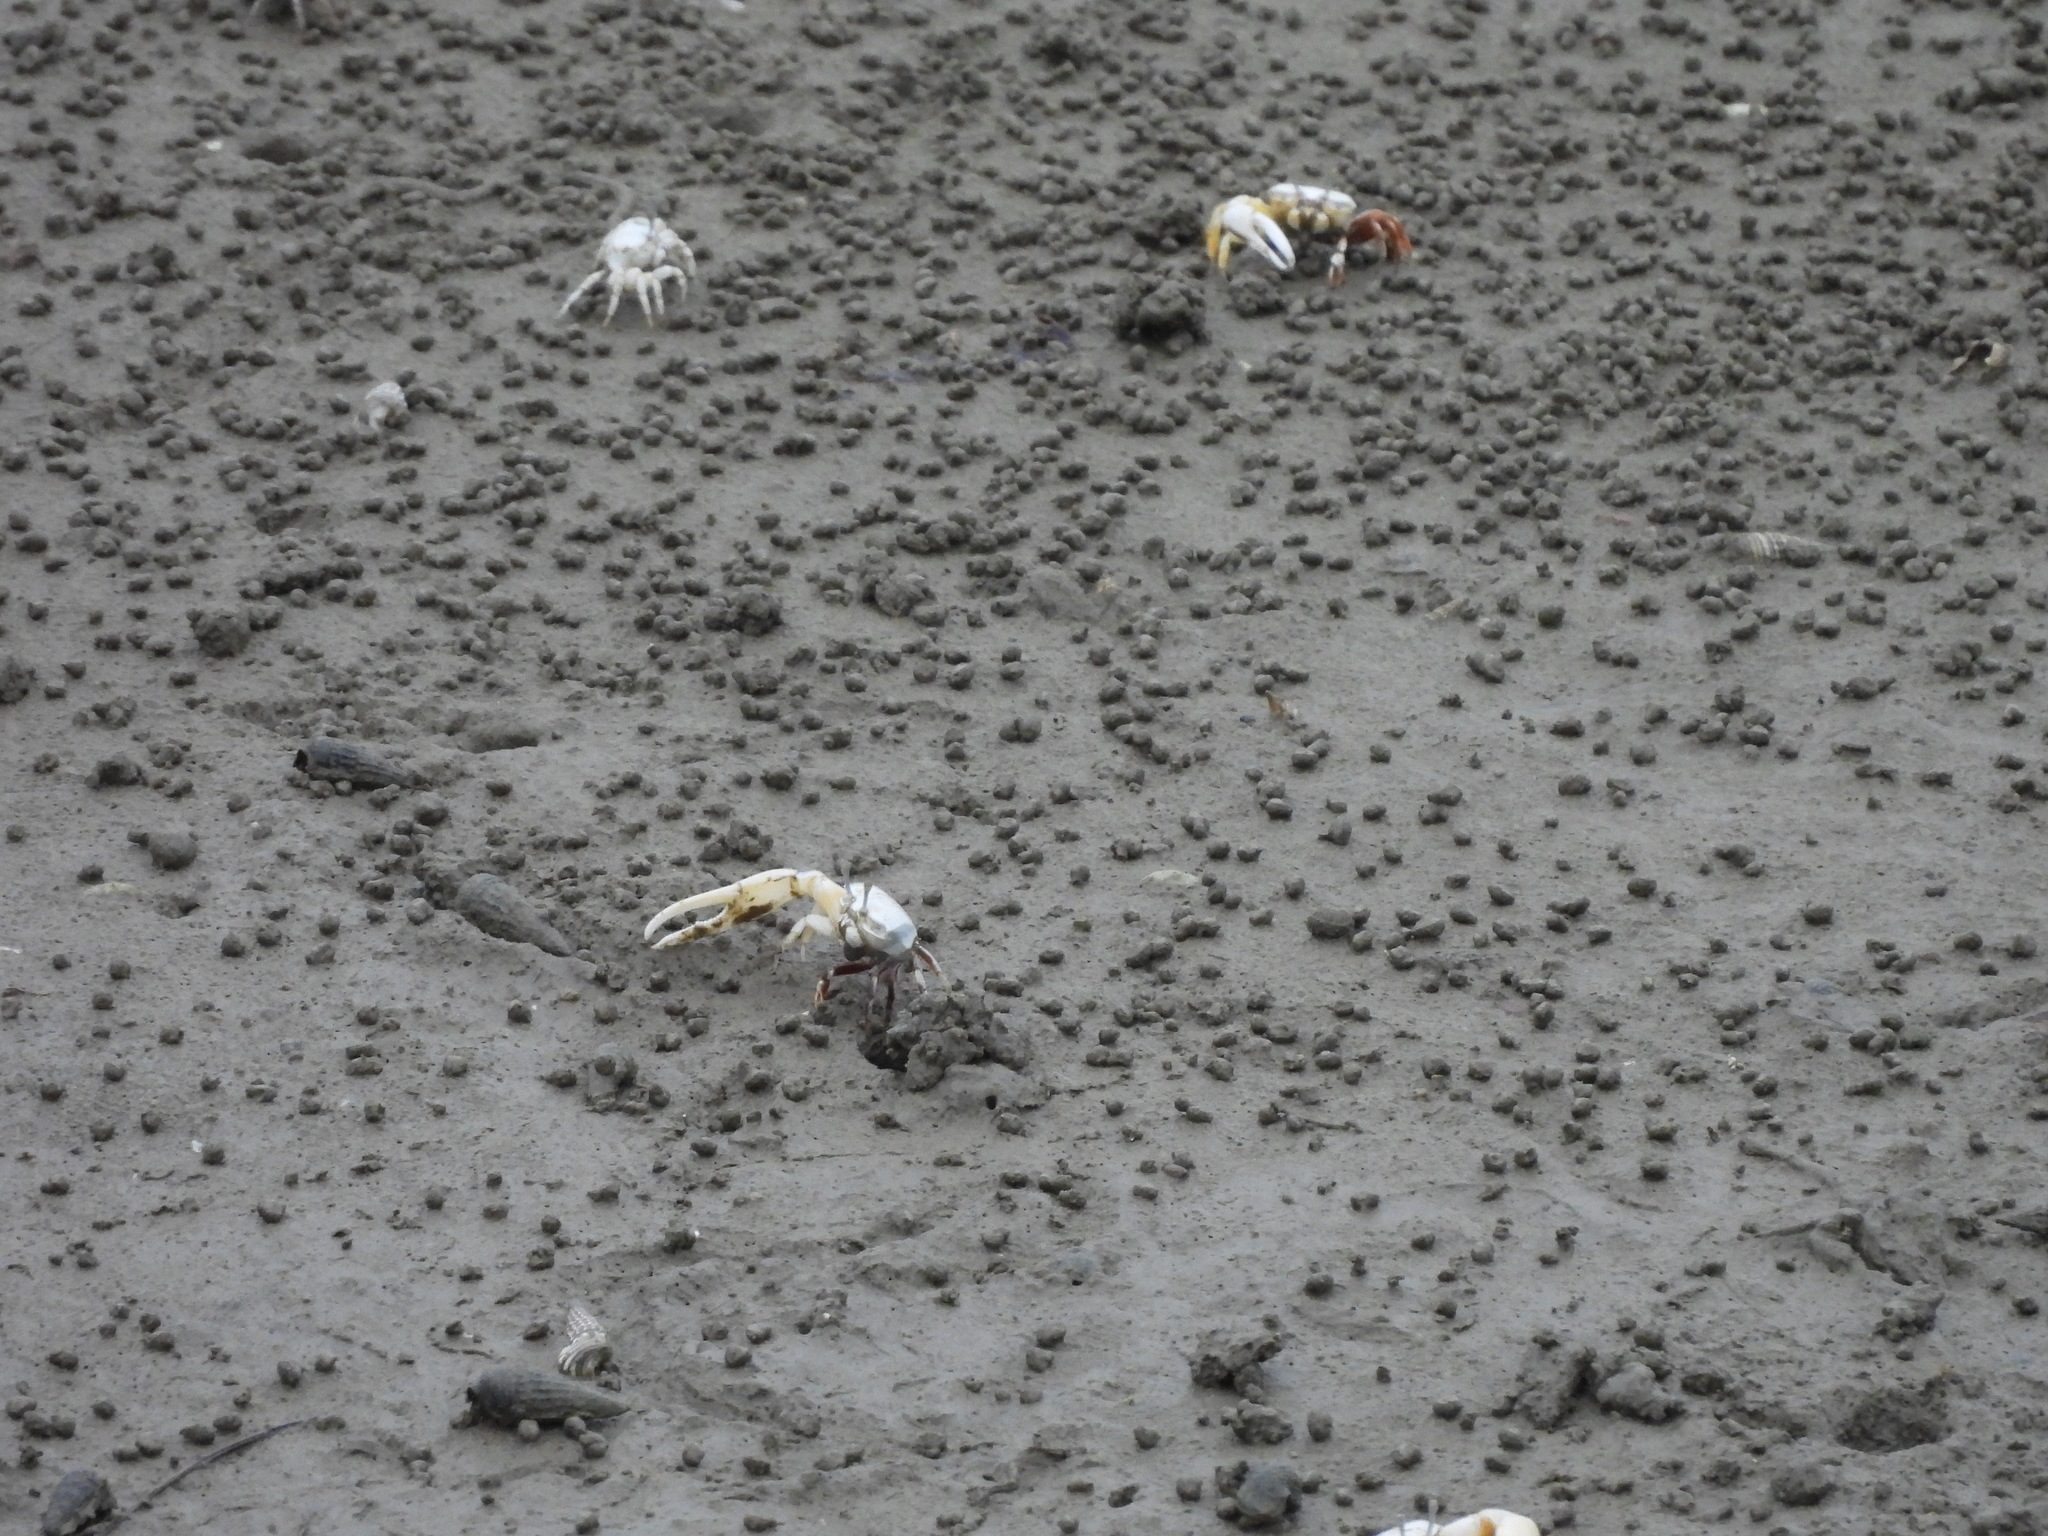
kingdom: Animalia
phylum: Arthropoda
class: Malacostraca
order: Decapoda
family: Ocypodidae
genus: Austruca
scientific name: Austruca lactea
